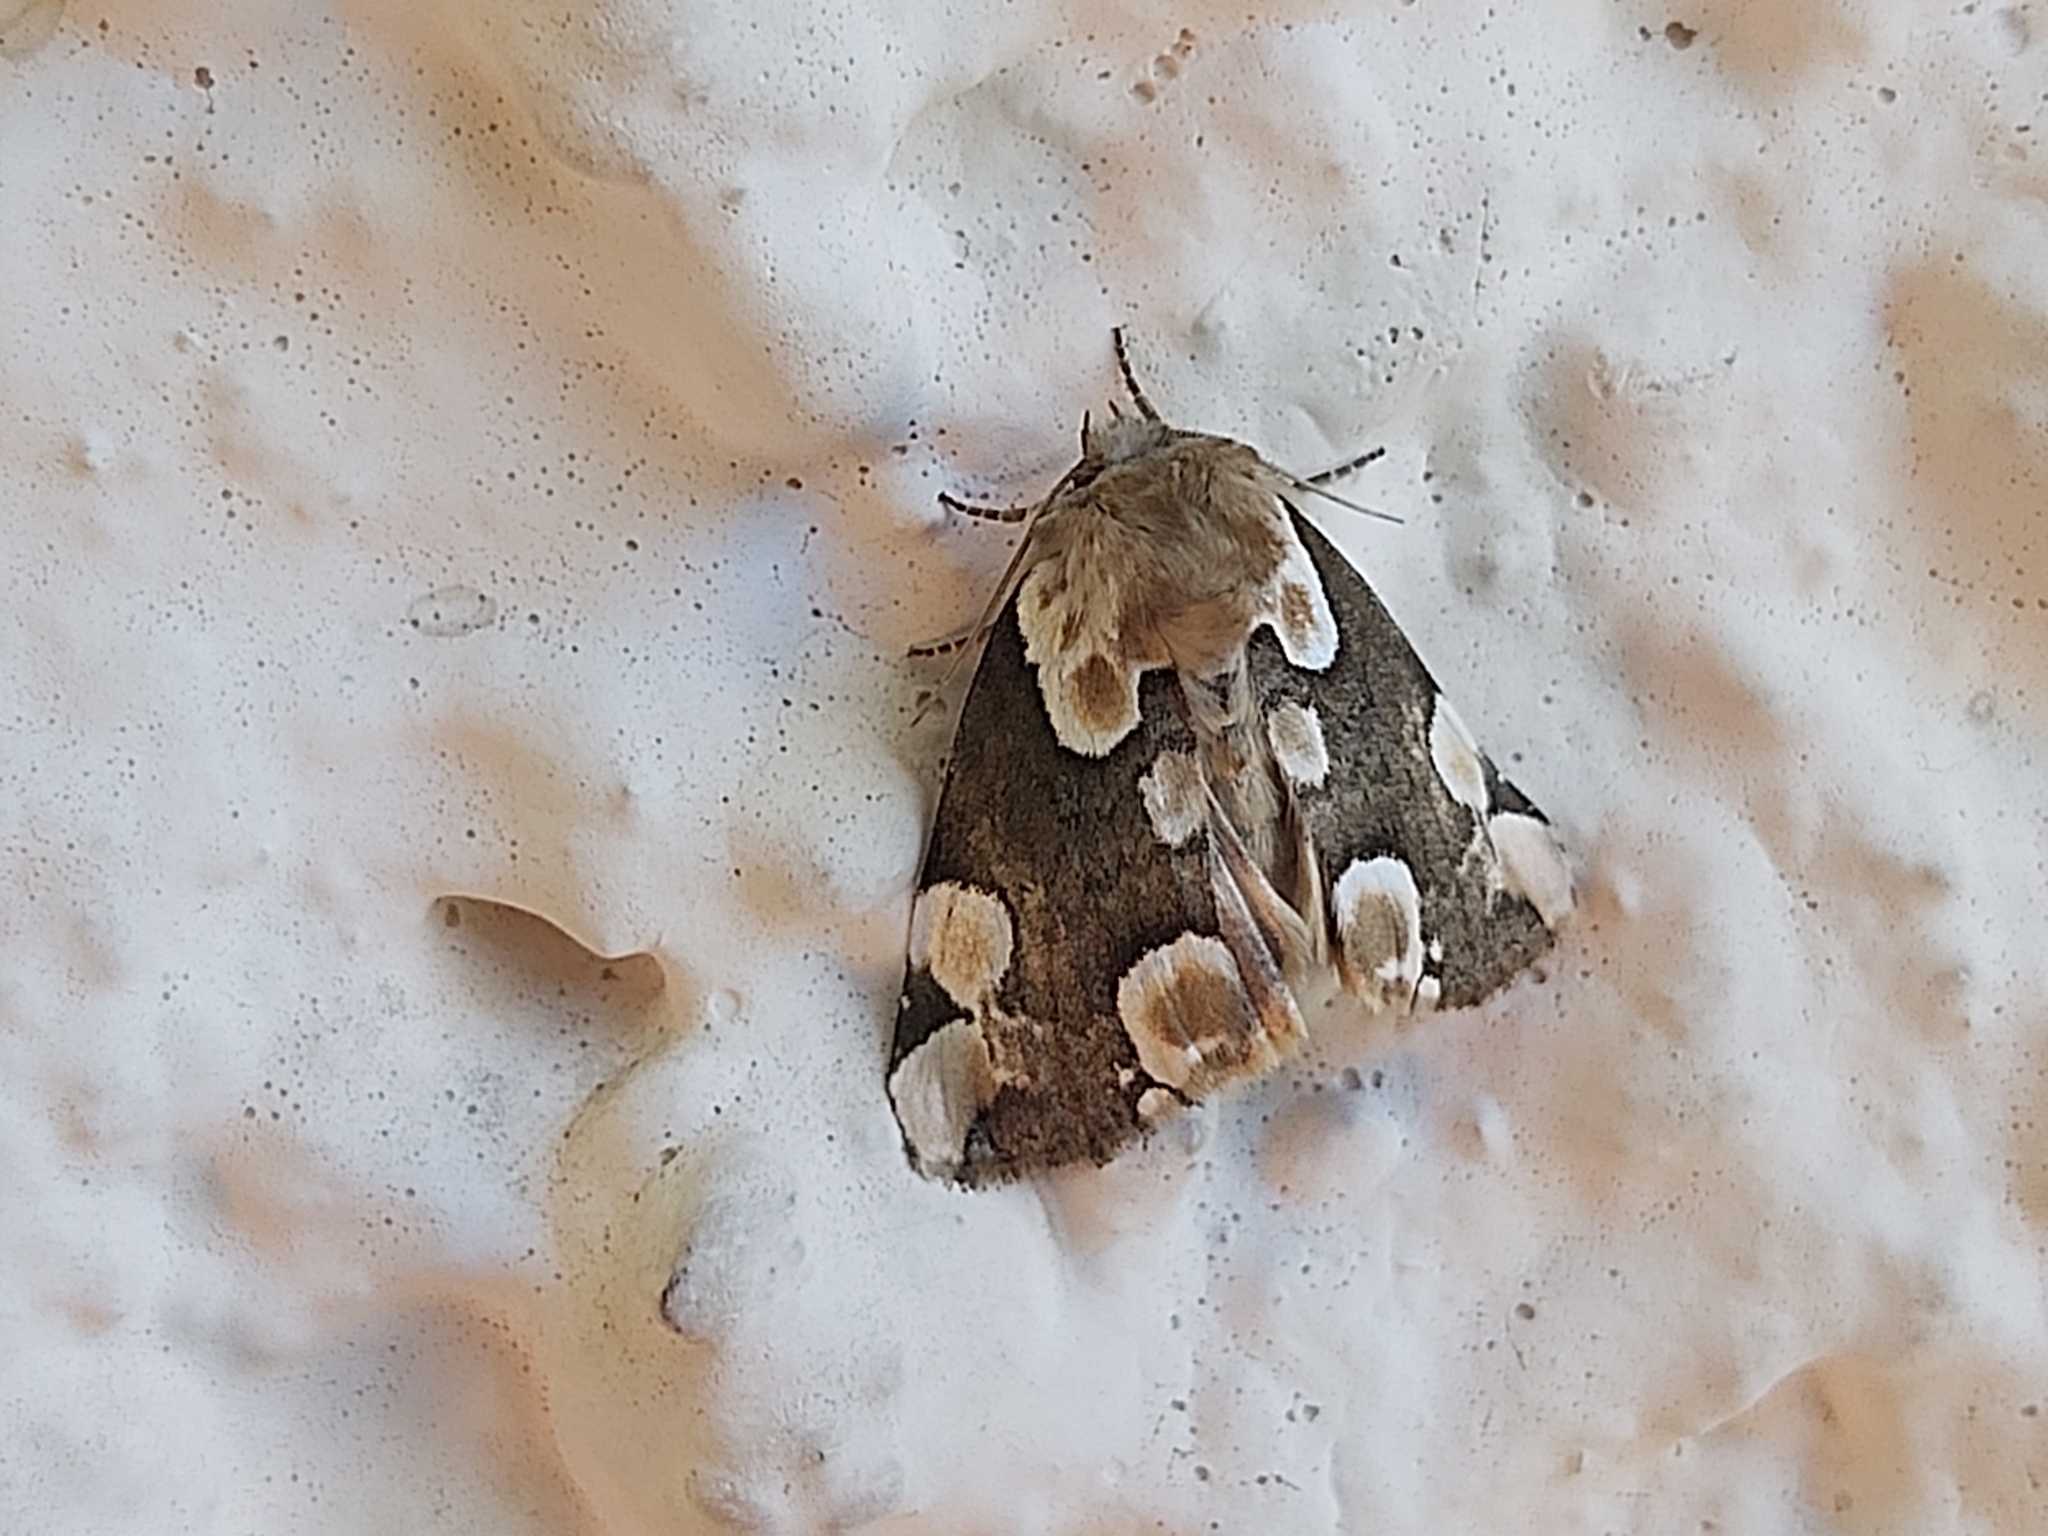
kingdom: Animalia
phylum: Arthropoda
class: Insecta
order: Lepidoptera
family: Drepanidae
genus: Thyatira
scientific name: Thyatira batis
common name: Peach blossom
